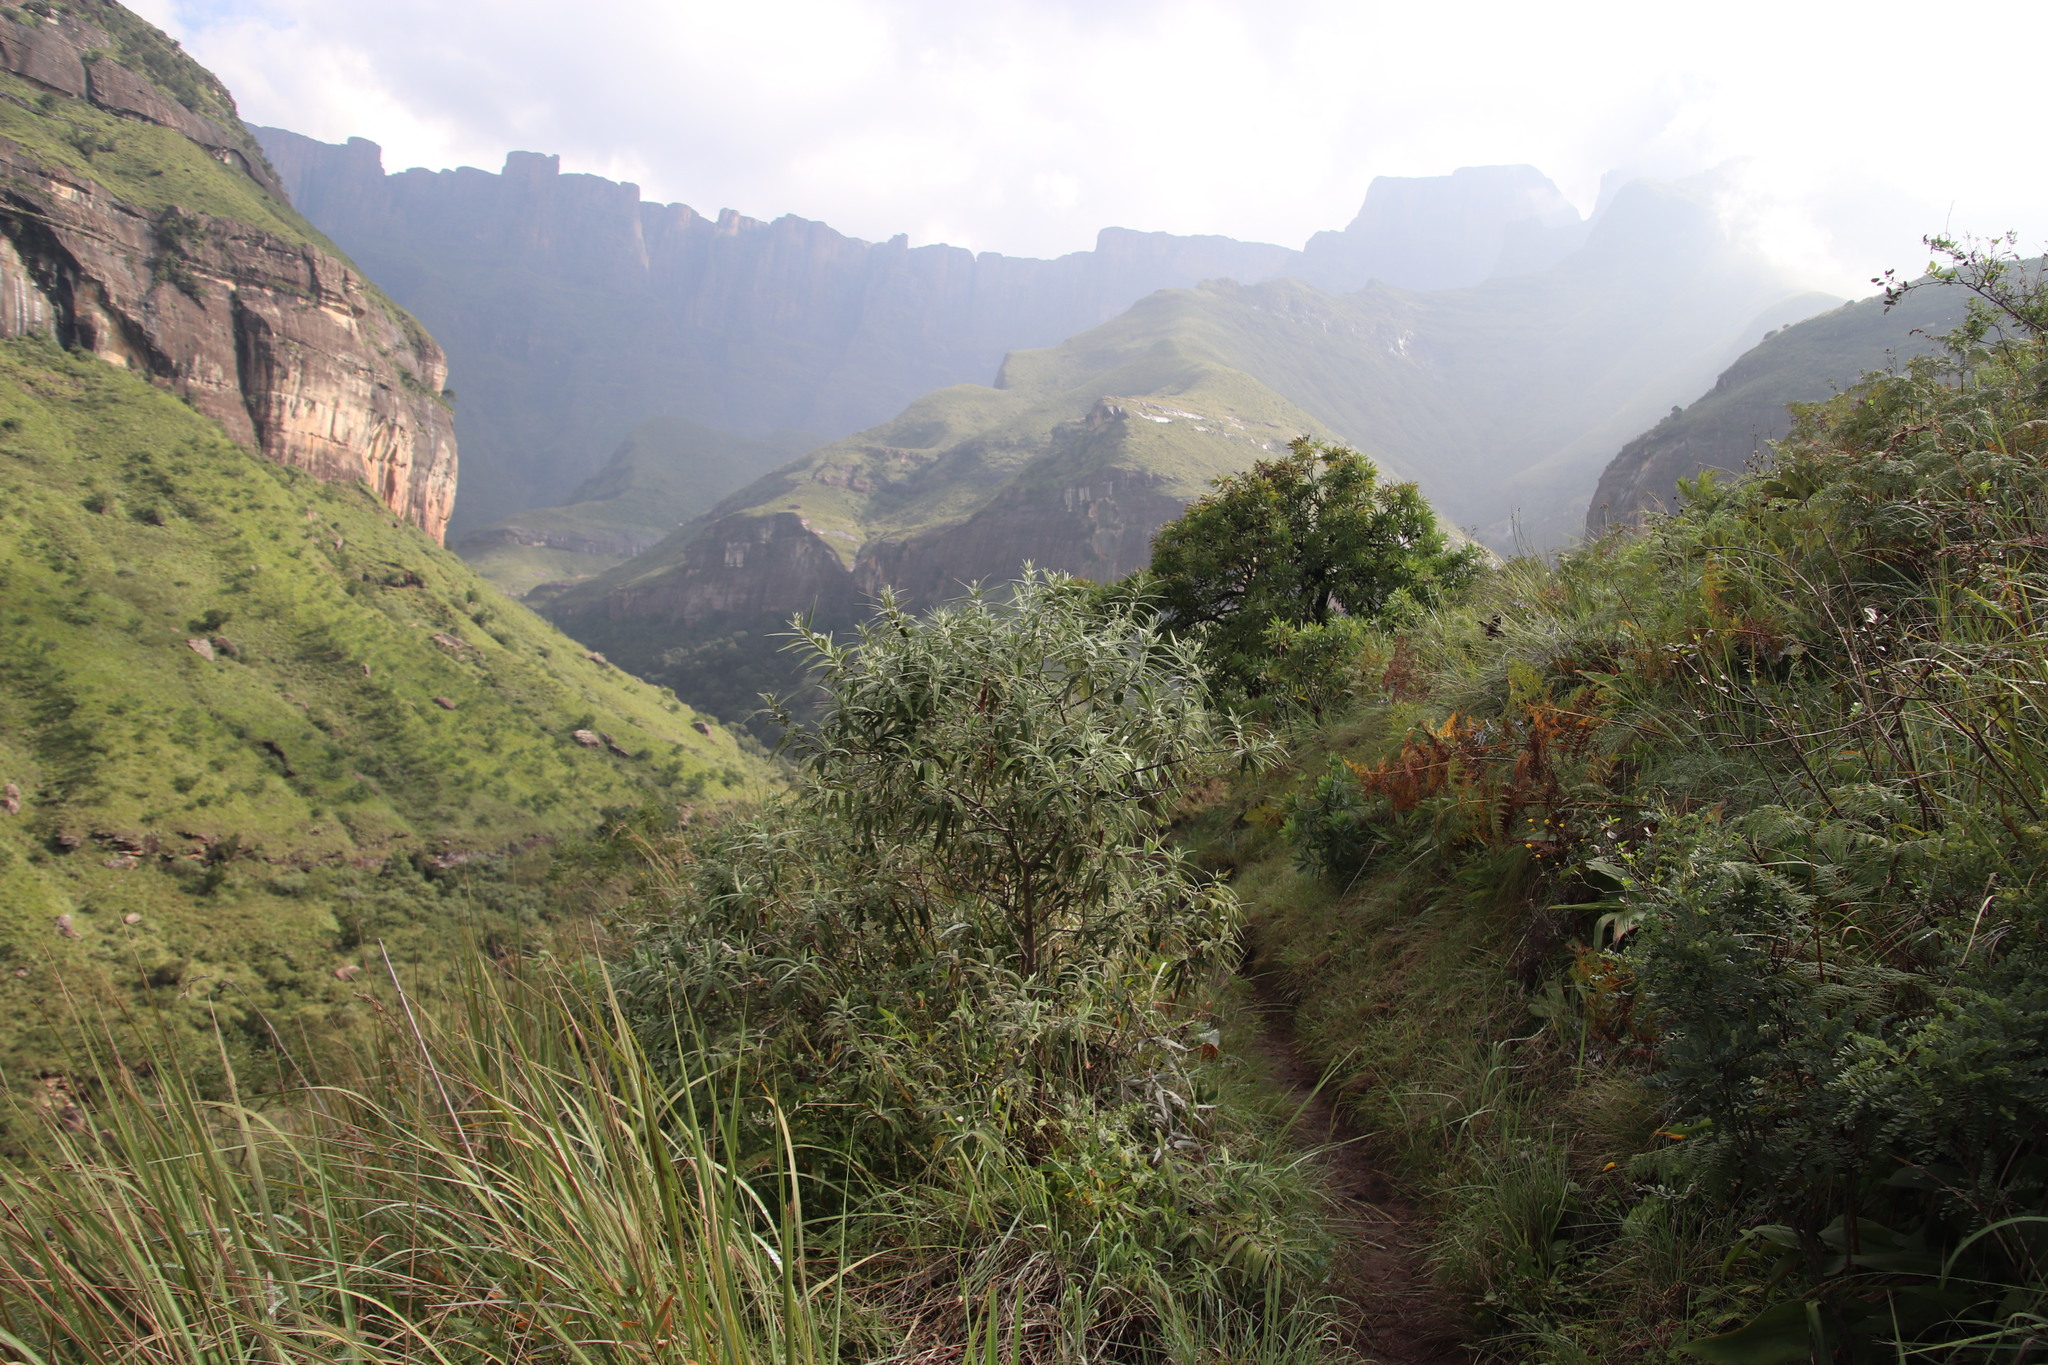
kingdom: Plantae
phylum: Tracheophyta
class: Magnoliopsida
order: Lamiales
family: Scrophulariaceae
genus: Buddleja
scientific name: Buddleja salviifolia
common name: Sagewood
